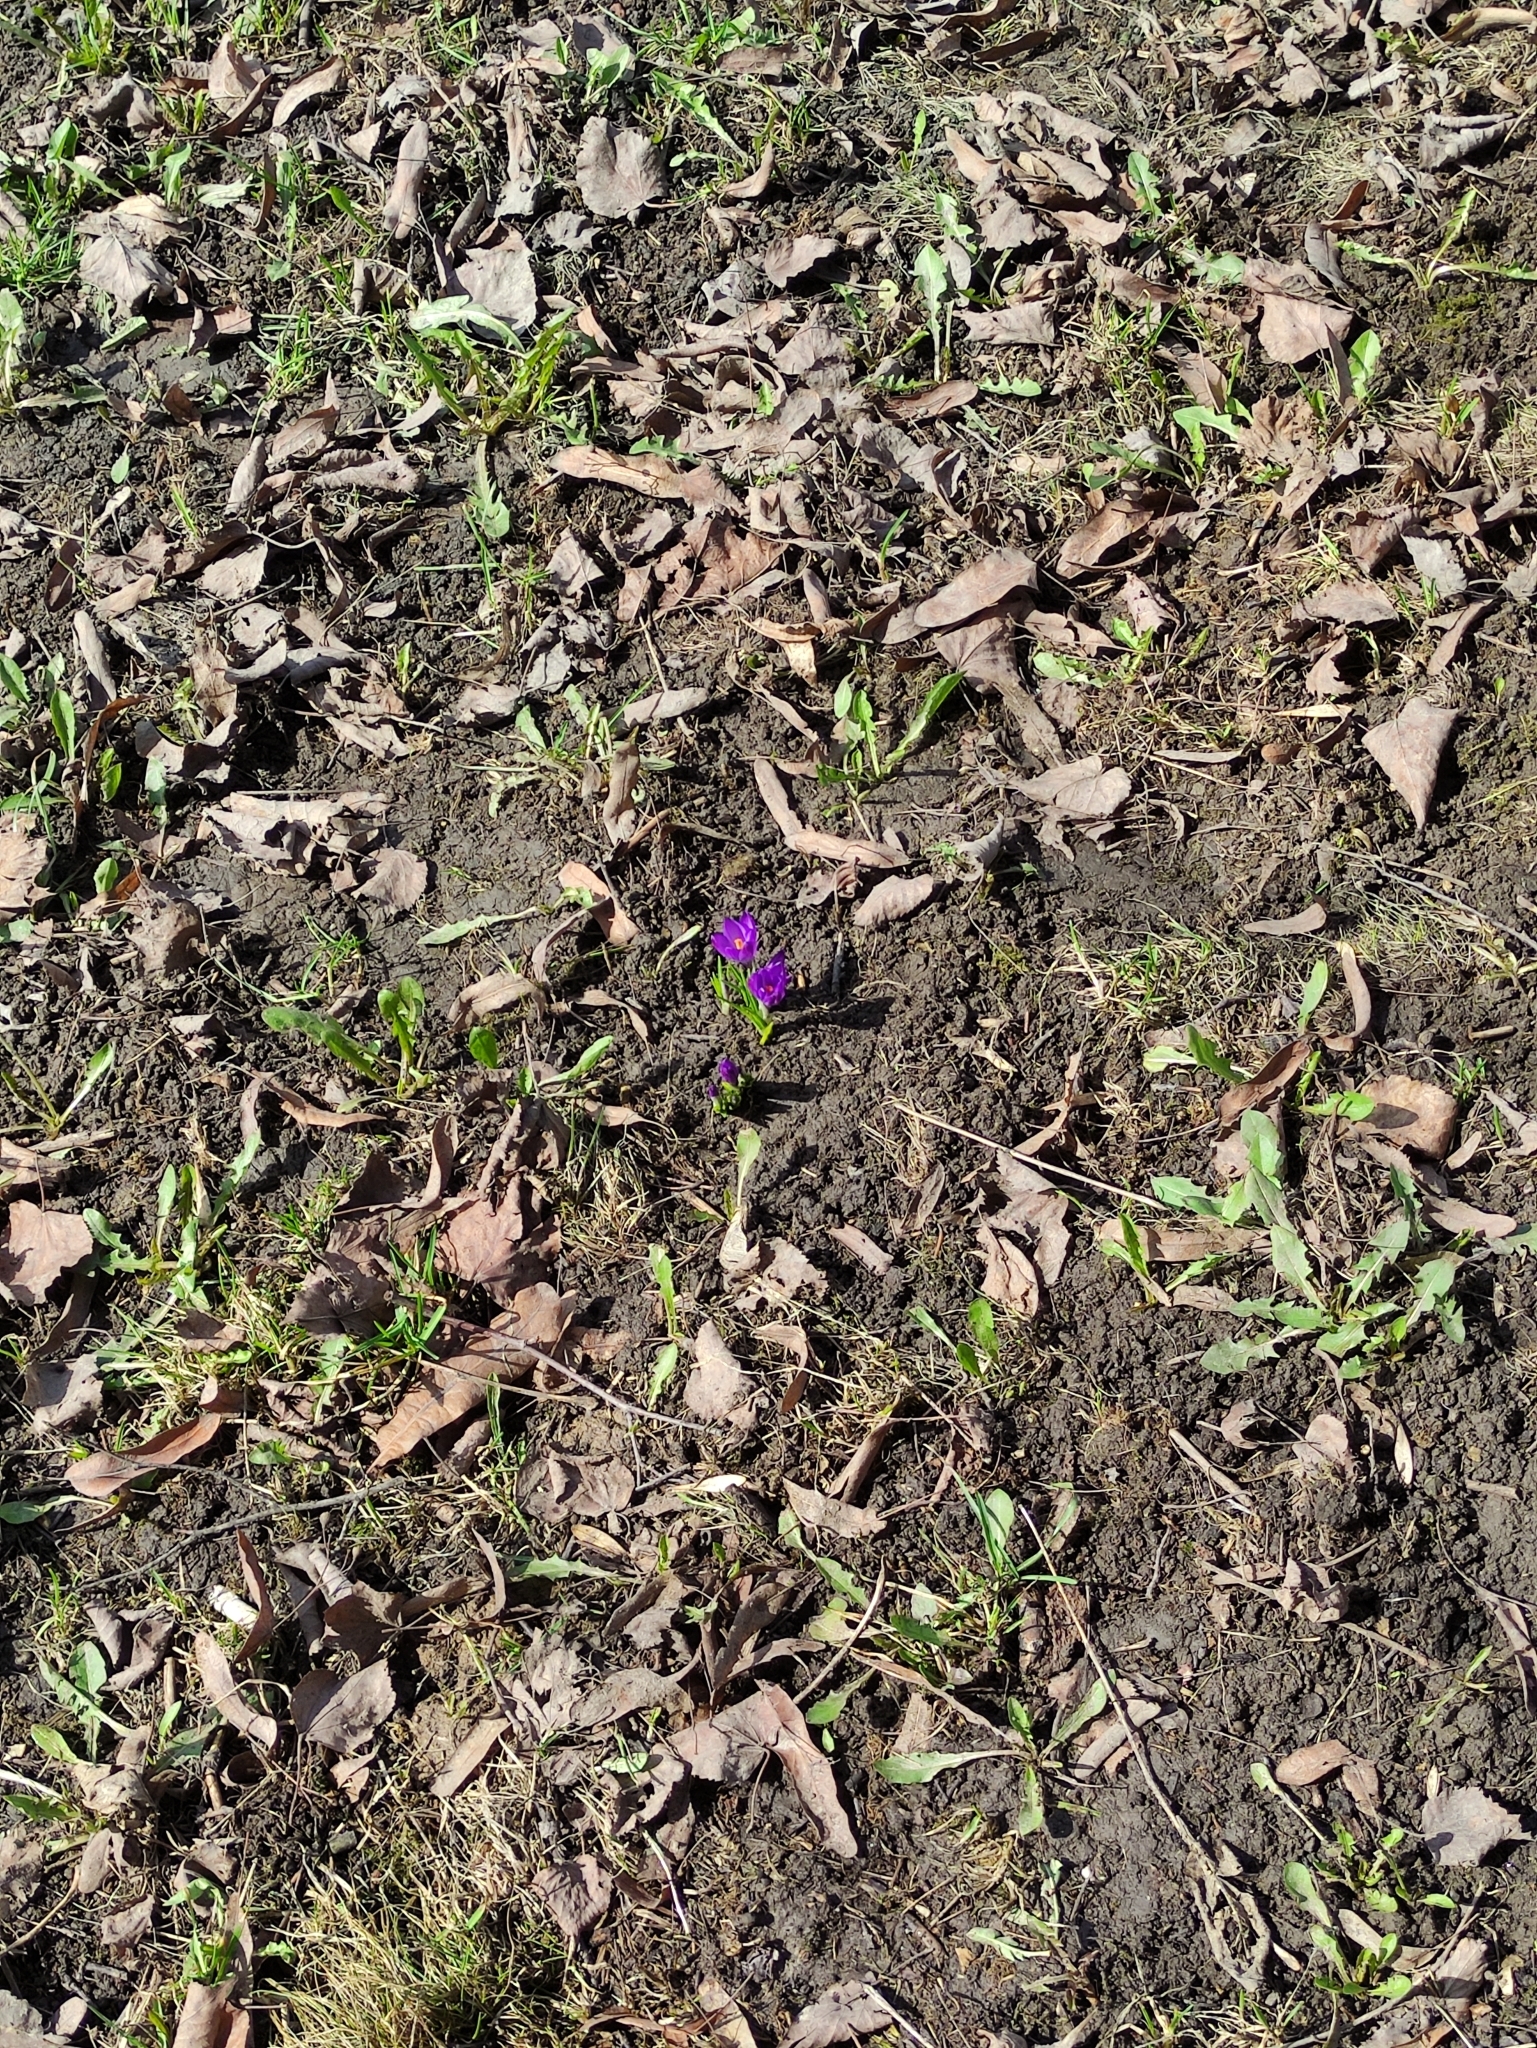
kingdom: Plantae
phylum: Tracheophyta
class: Liliopsida
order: Asparagales
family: Iridaceae
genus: Crocus
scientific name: Crocus vernus
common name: Spring crocus
